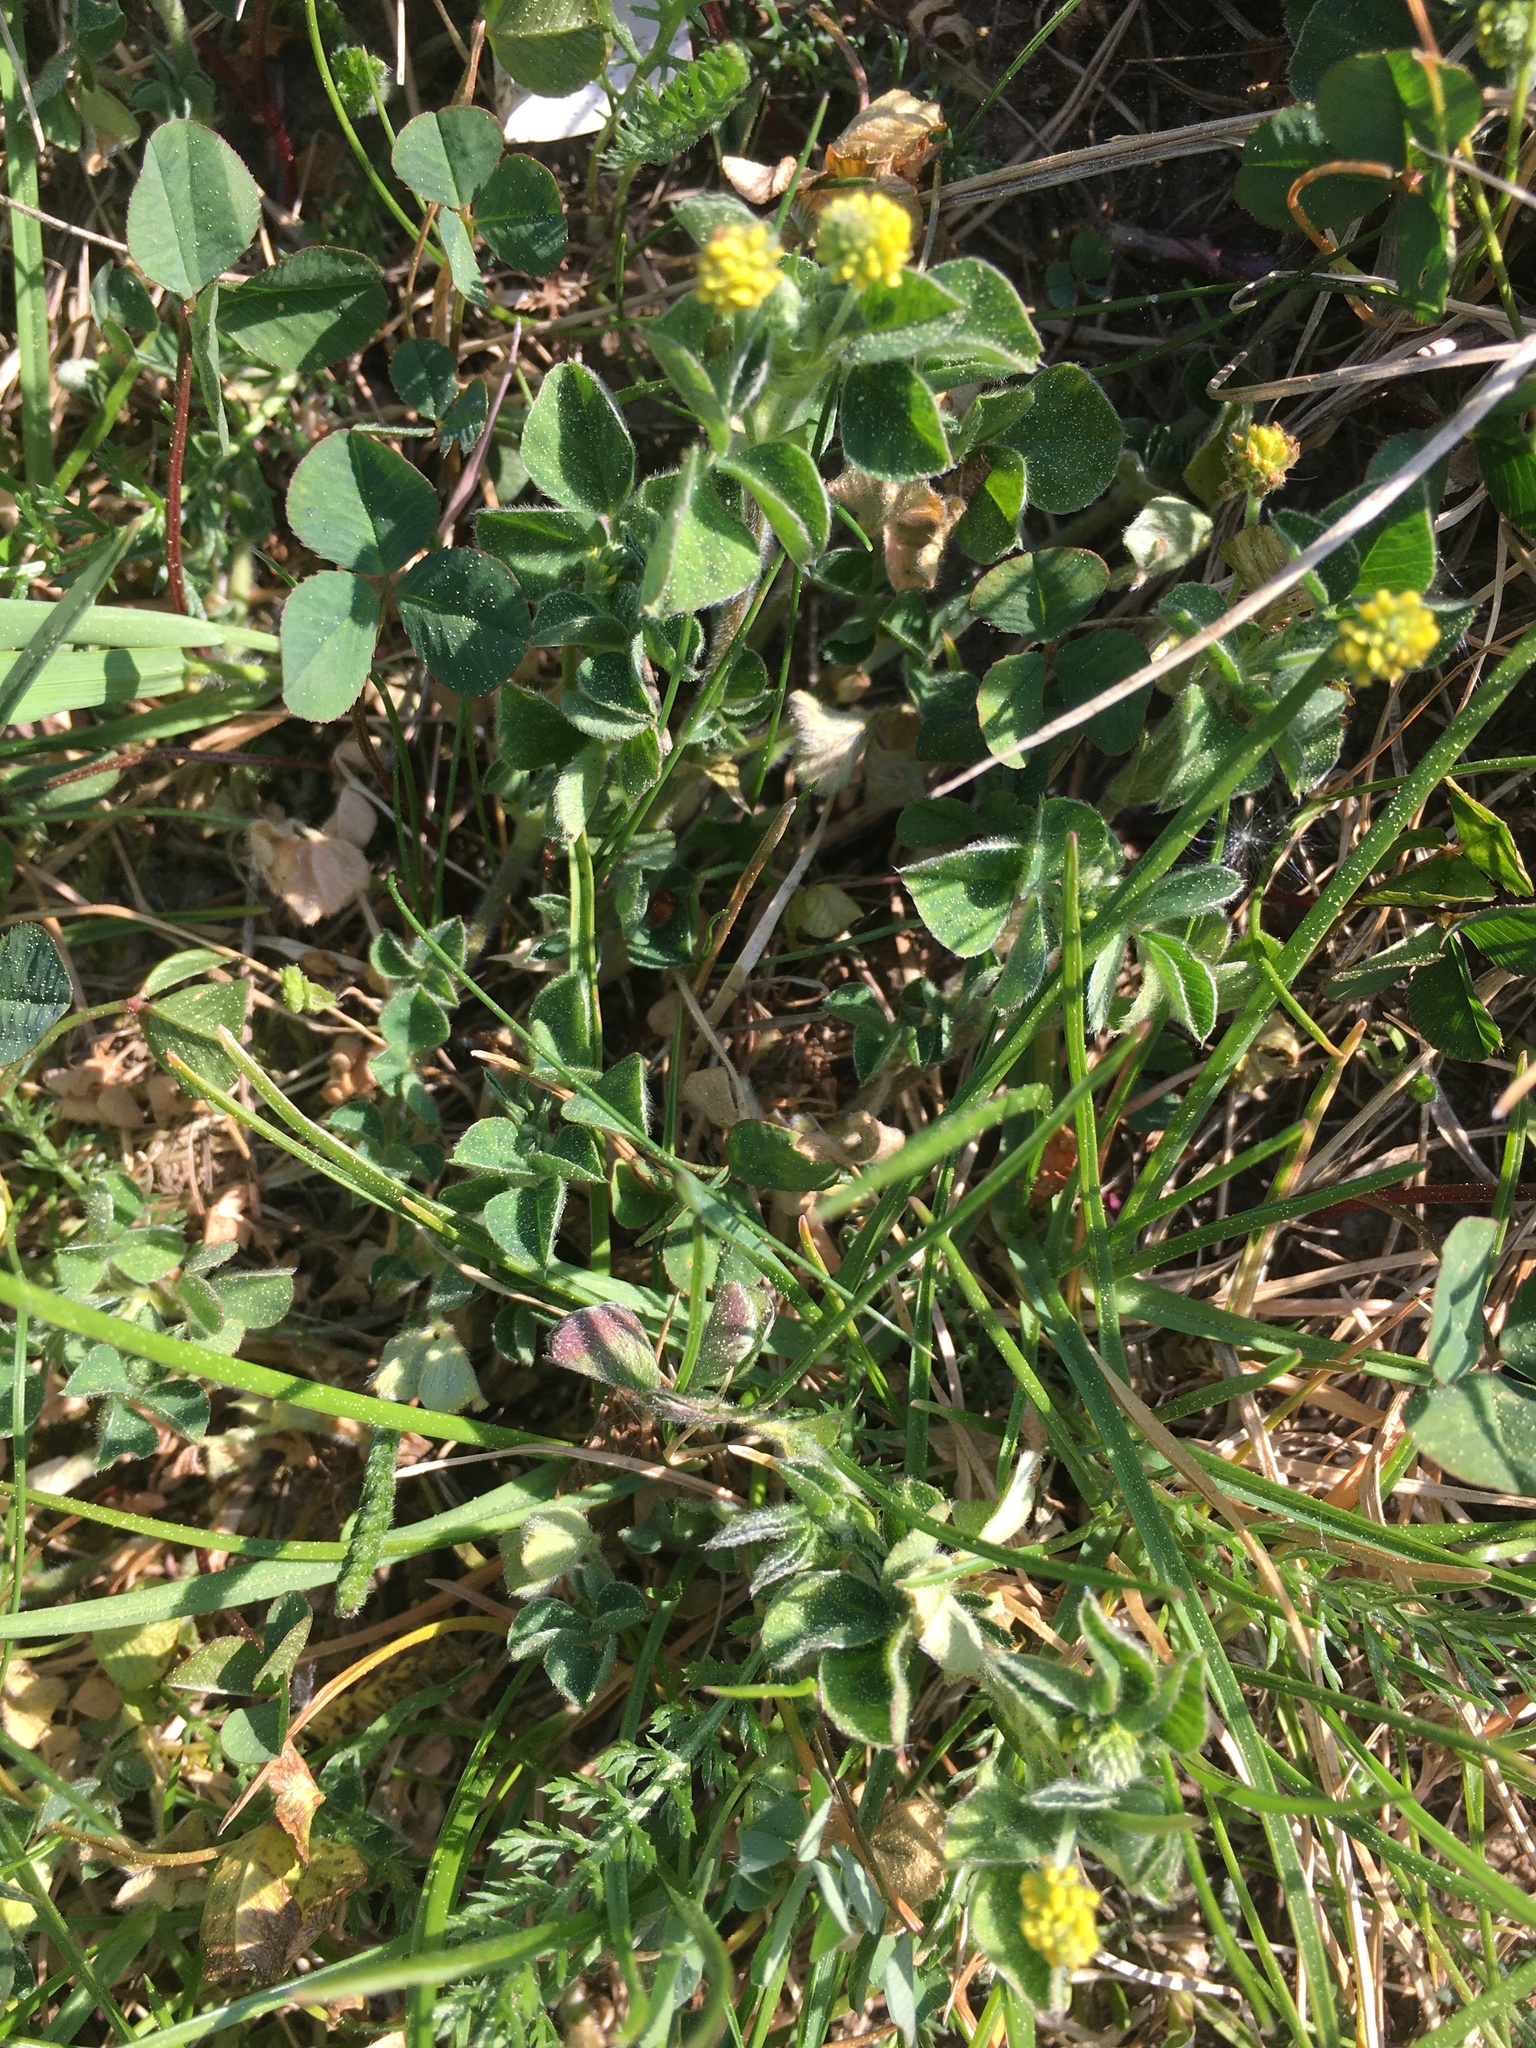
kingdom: Plantae
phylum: Tracheophyta
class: Magnoliopsida
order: Fabales
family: Fabaceae
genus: Medicago
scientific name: Medicago lupulina
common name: Black medick
